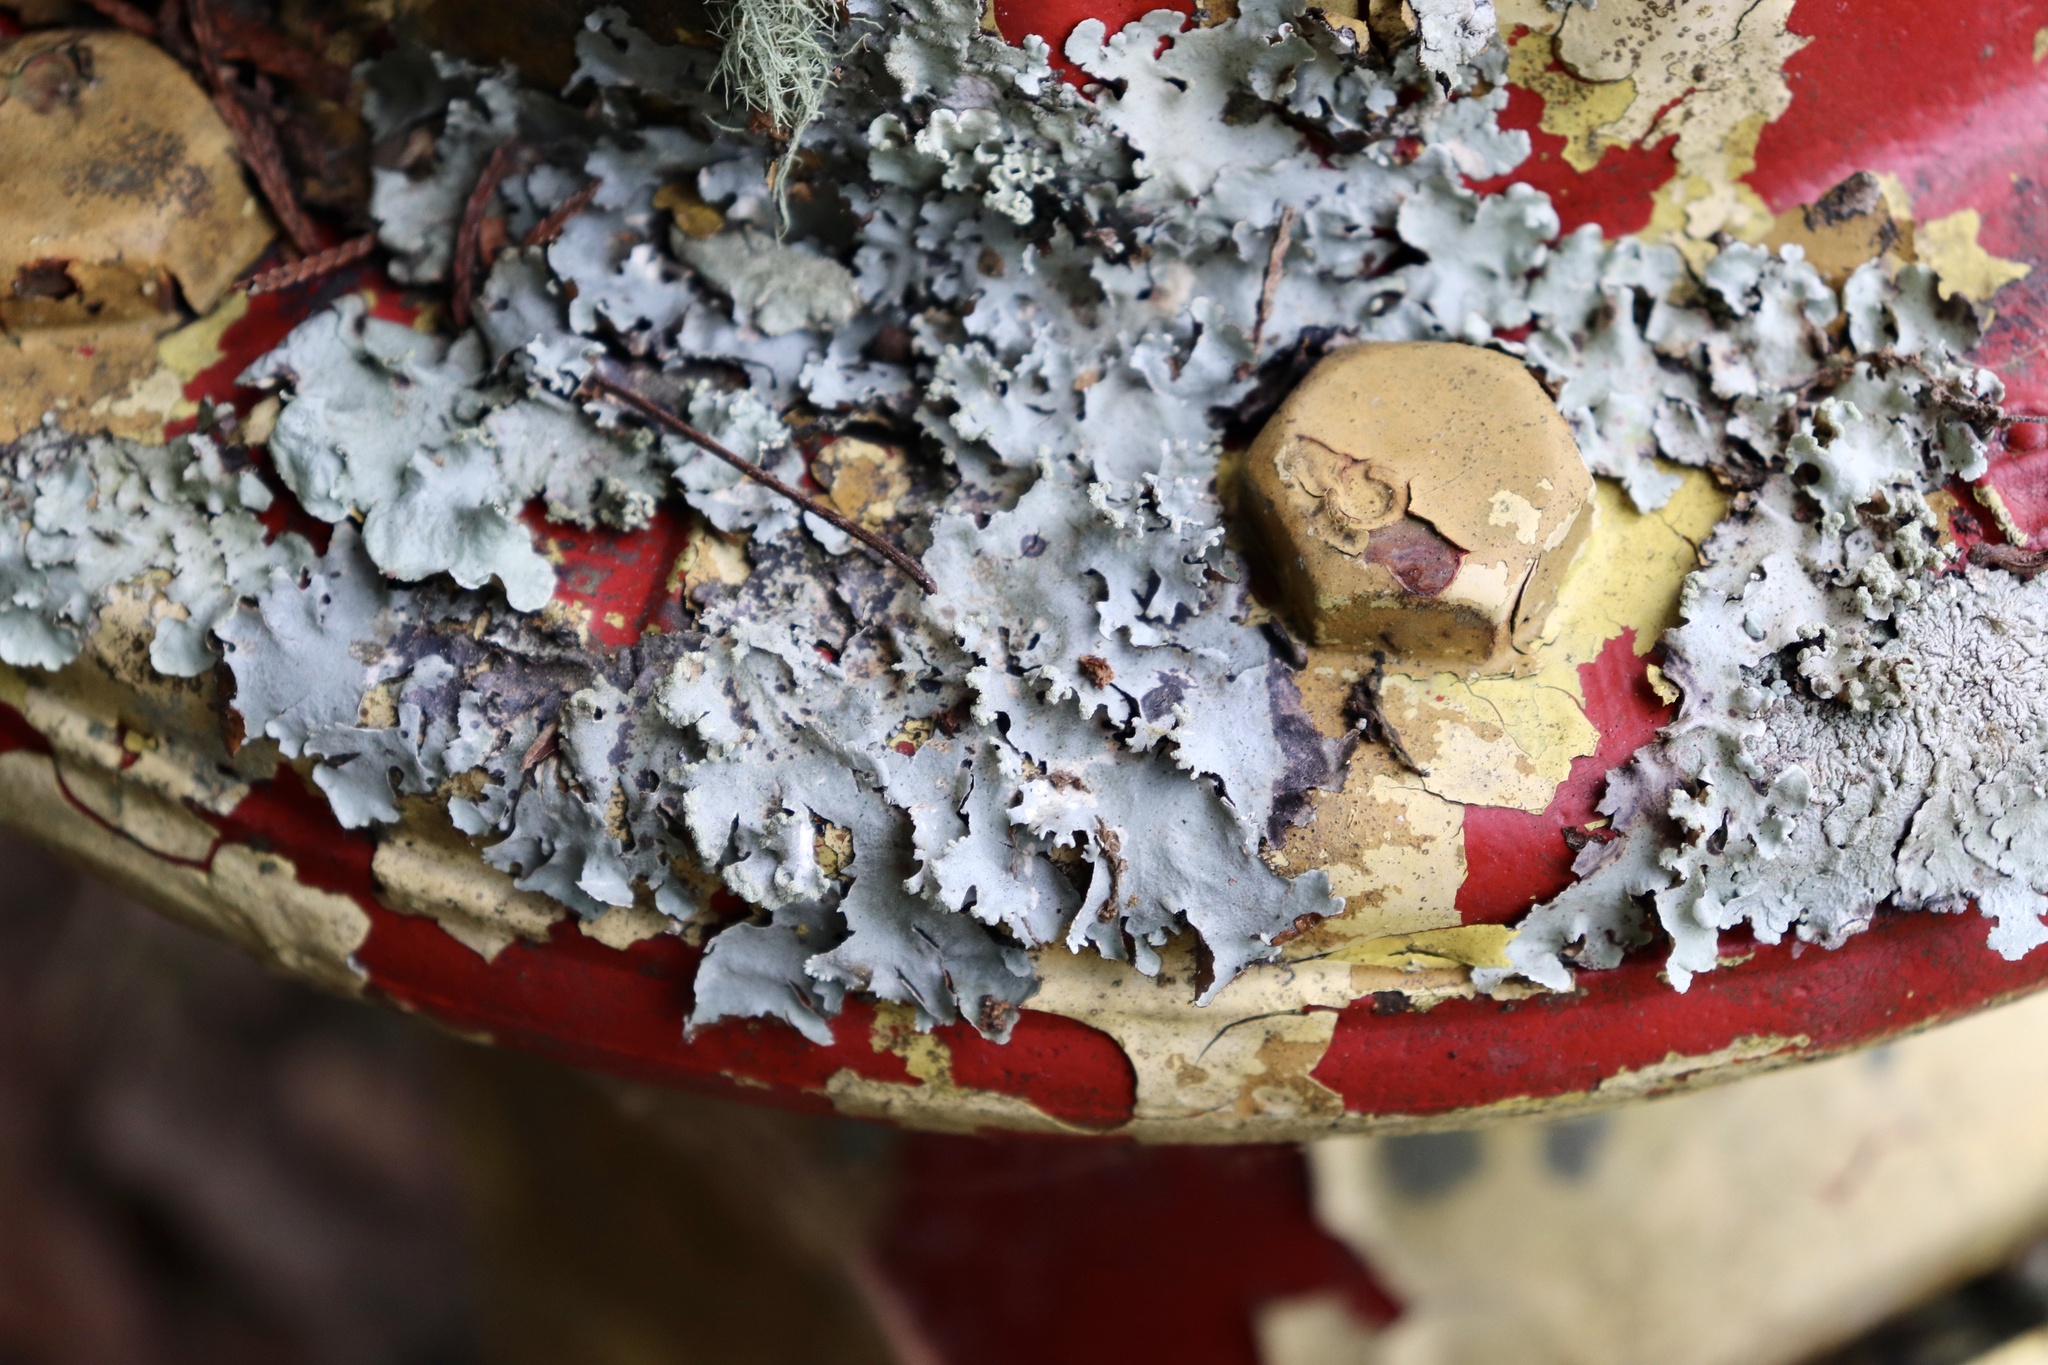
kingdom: Fungi
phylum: Ascomycota
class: Lecanoromycetes
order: Lecanorales
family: Parmeliaceae
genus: Parmotrema
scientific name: Parmotrema reticulatum
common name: Black sheet lichen
